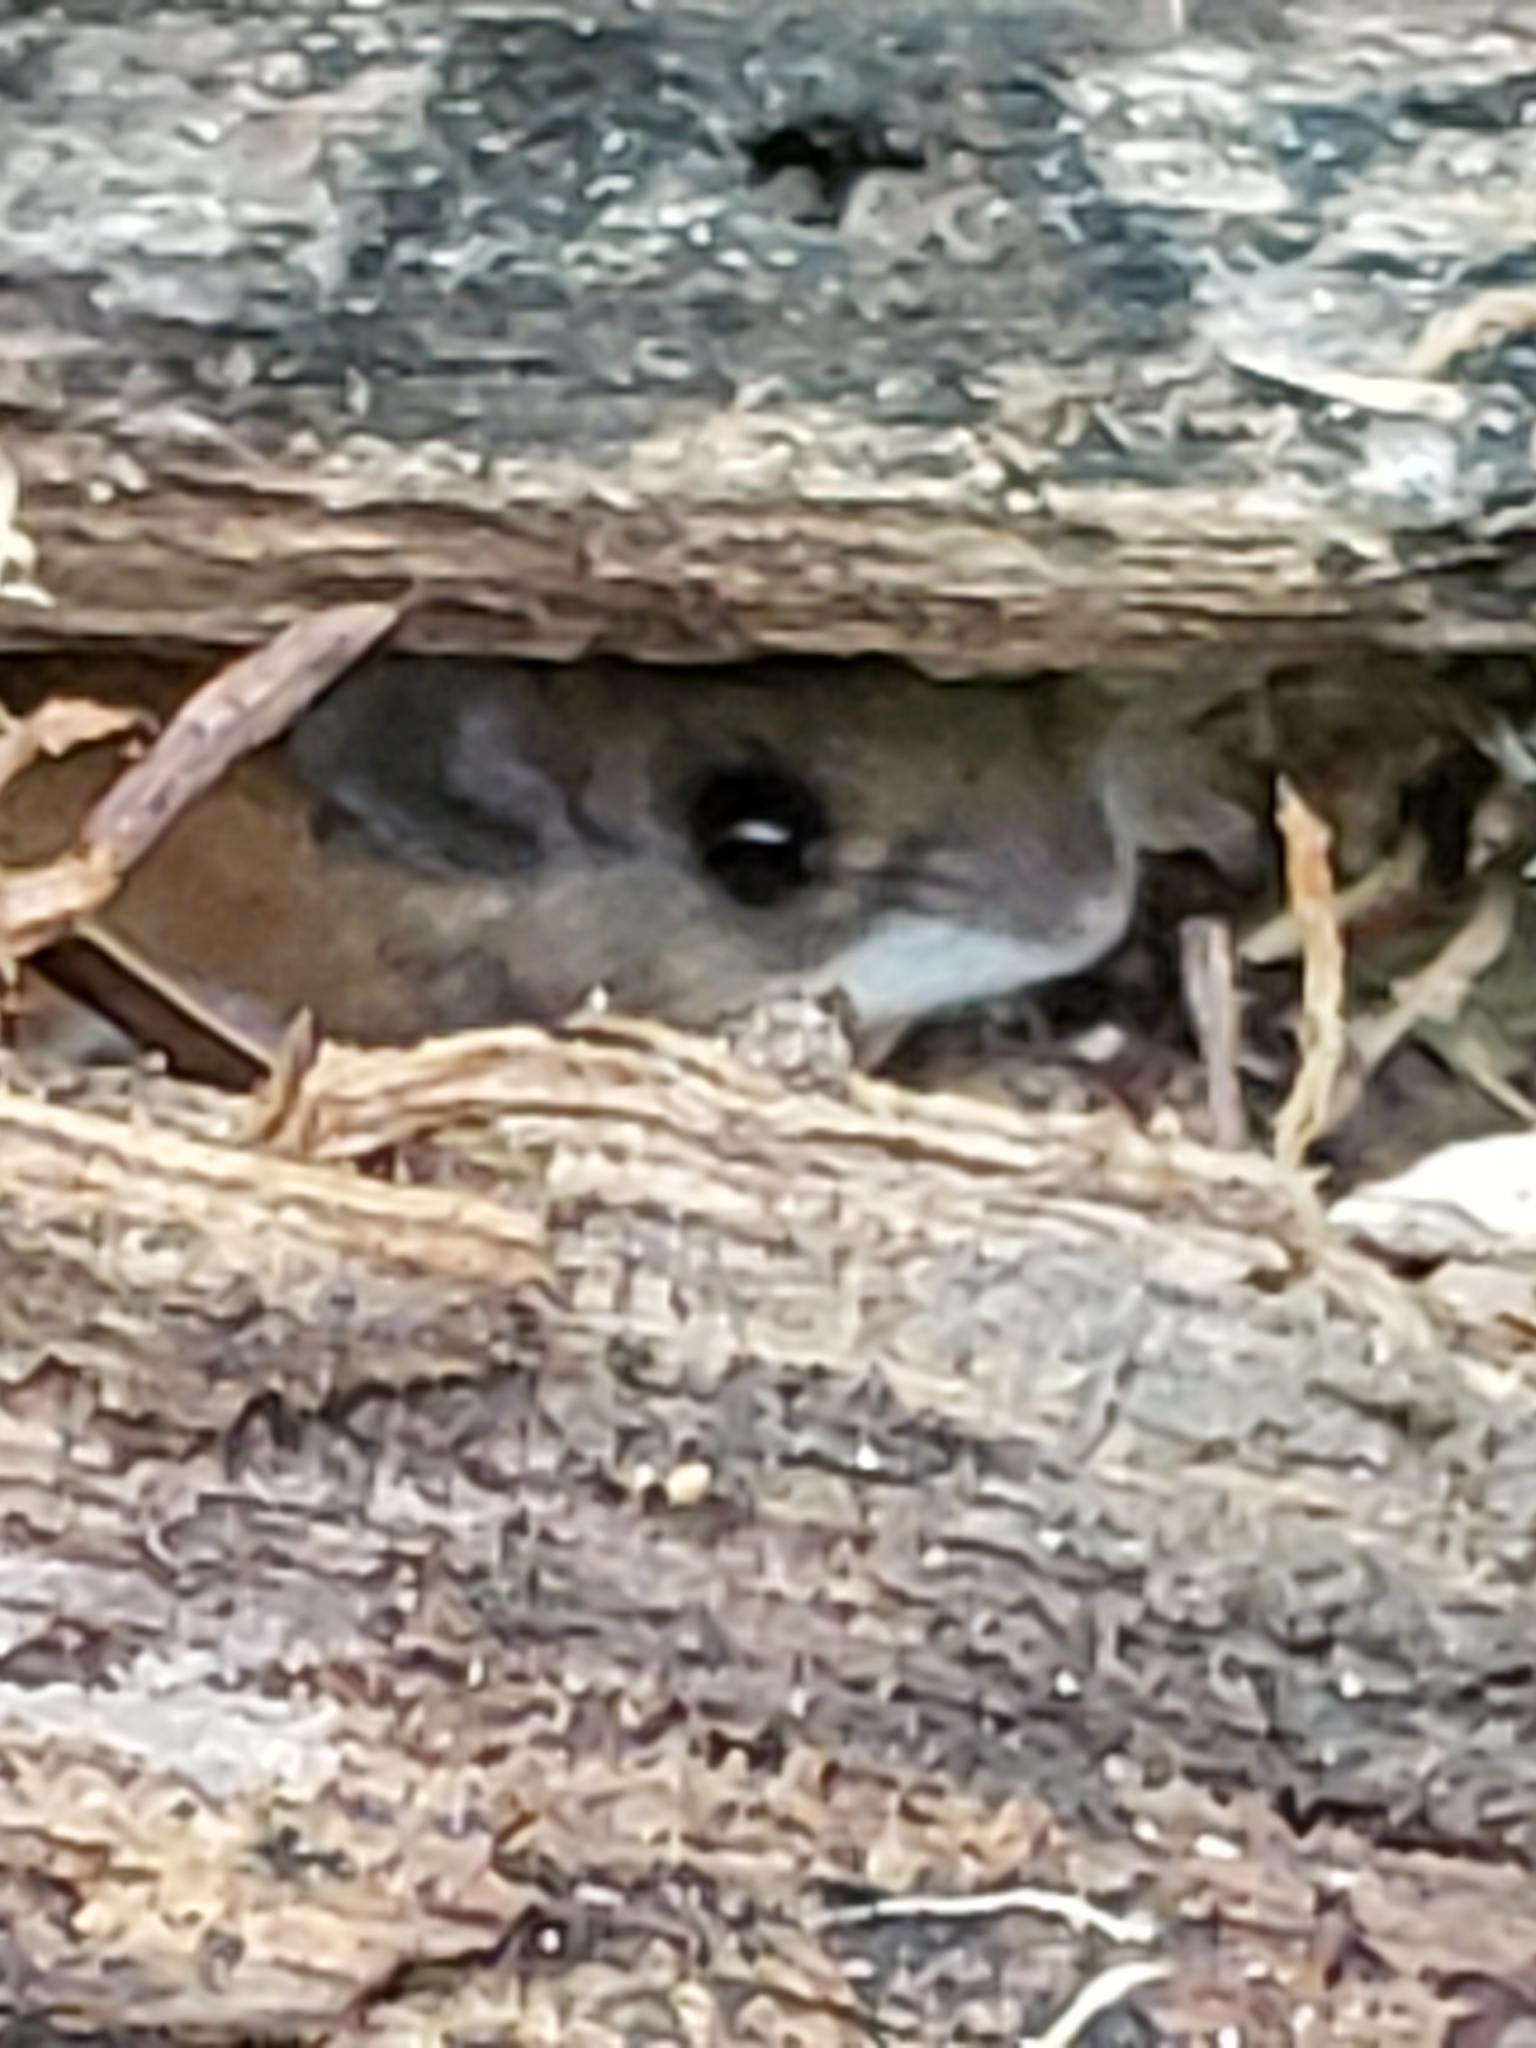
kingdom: Animalia
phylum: Chordata
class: Mammalia
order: Rodentia
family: Cricetidae
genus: Peromyscus
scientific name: Peromyscus leucopus
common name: White-footed deermouse
